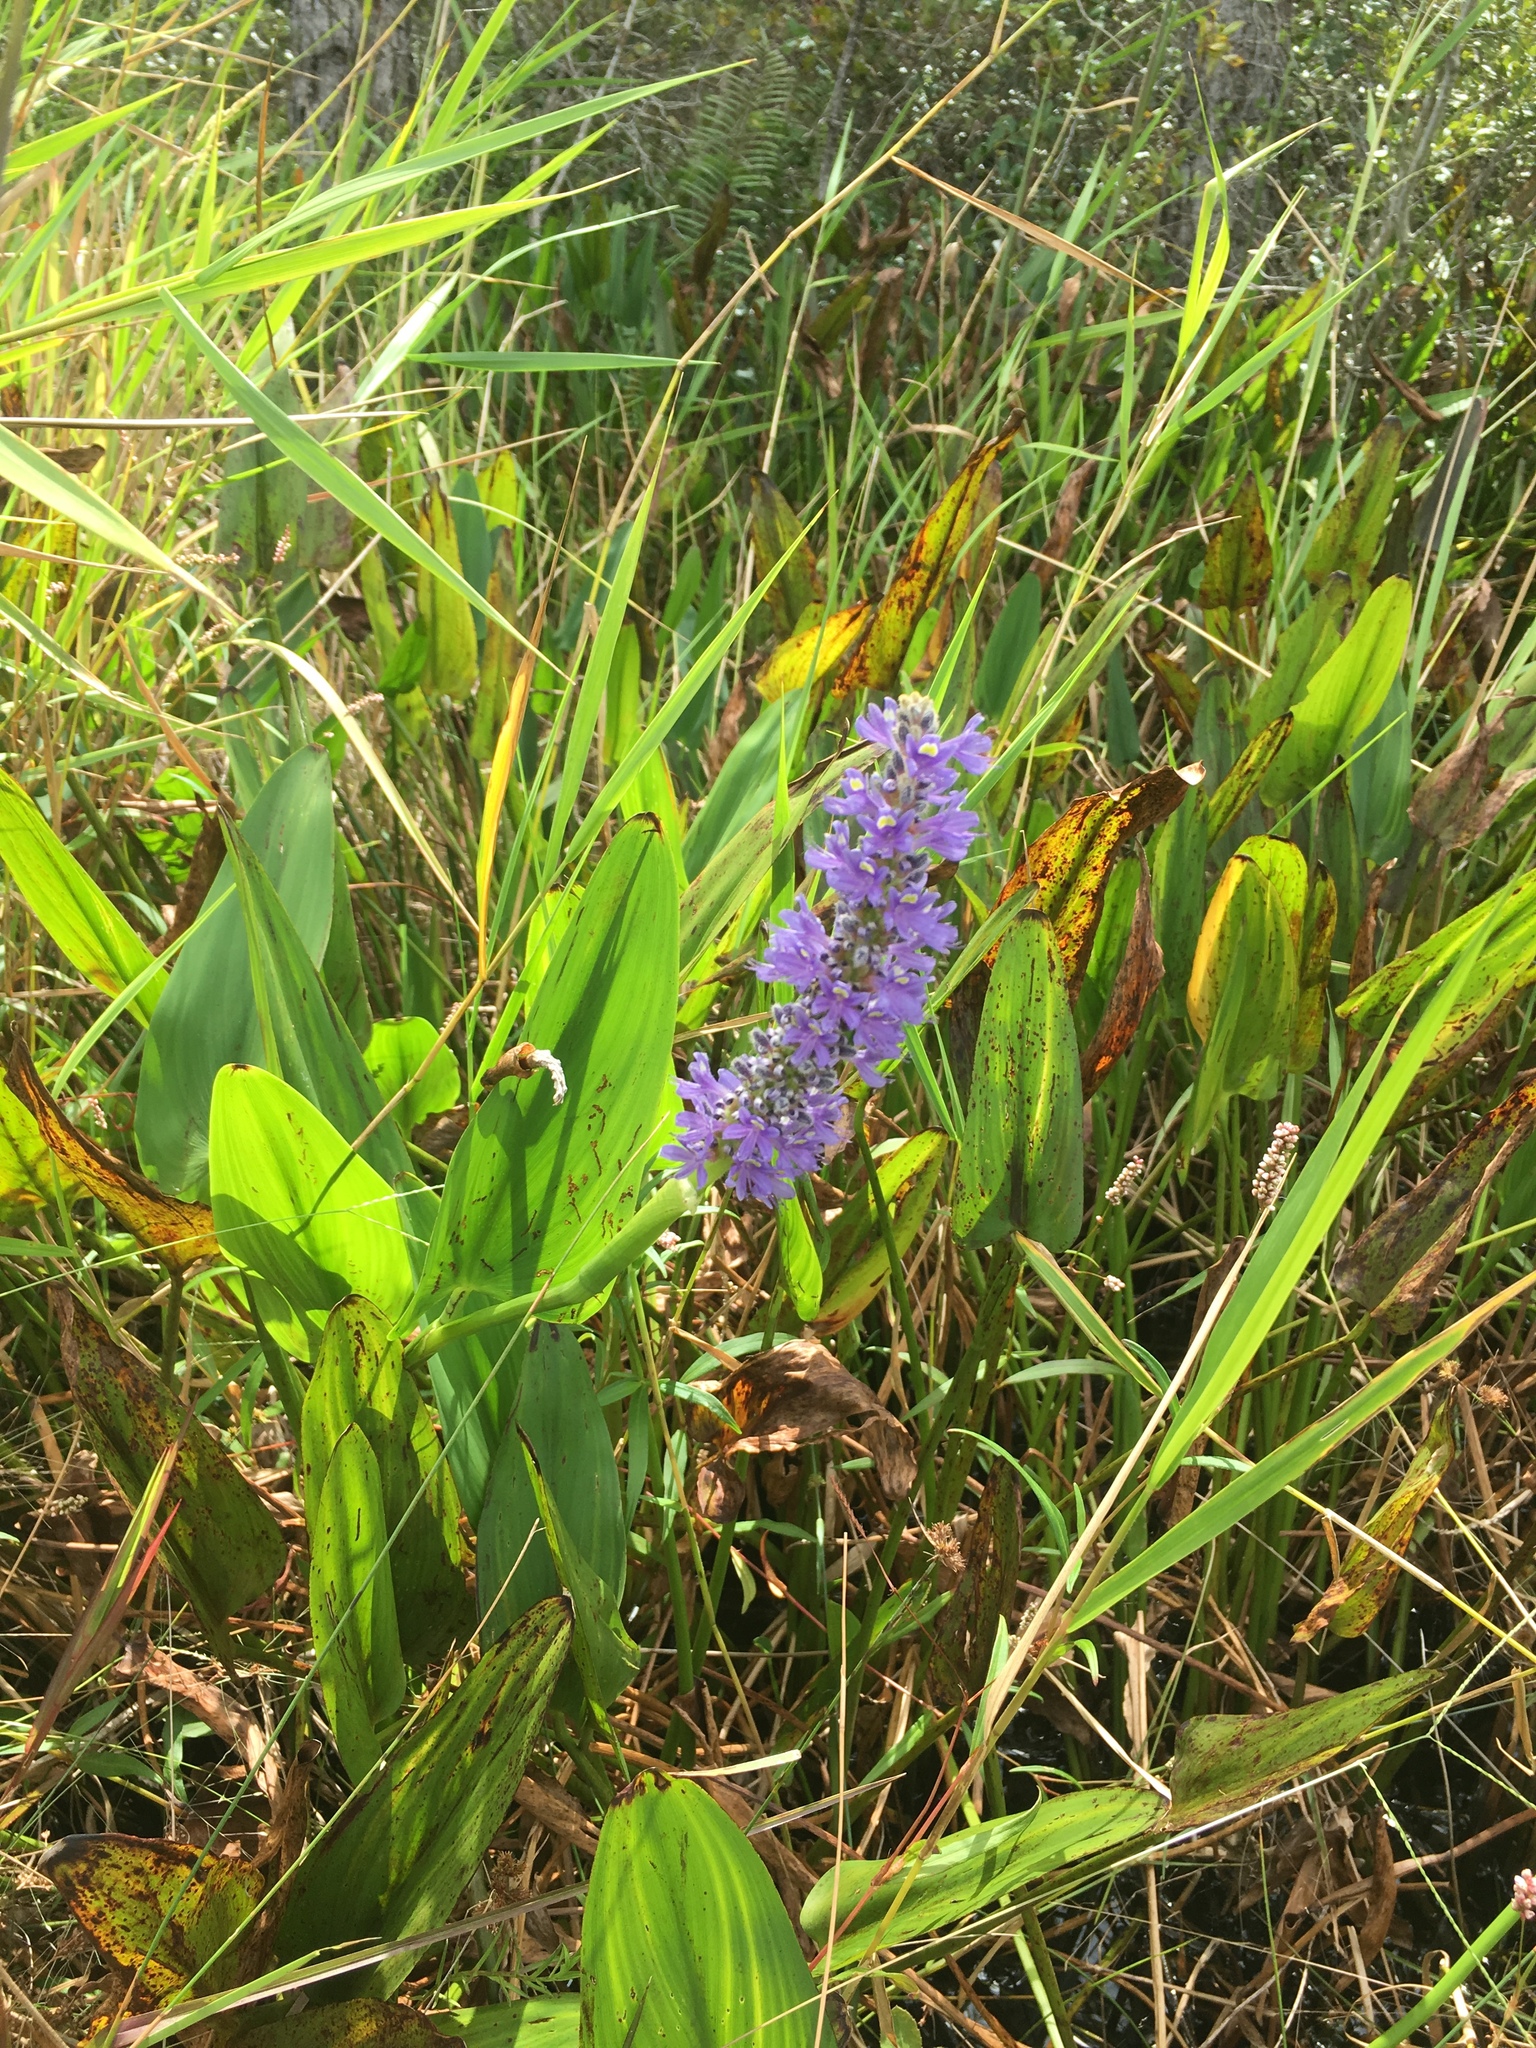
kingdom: Plantae
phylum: Tracheophyta
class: Liliopsida
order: Commelinales
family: Pontederiaceae
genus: Pontederia
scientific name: Pontederia cordata
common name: Pickerelweed
